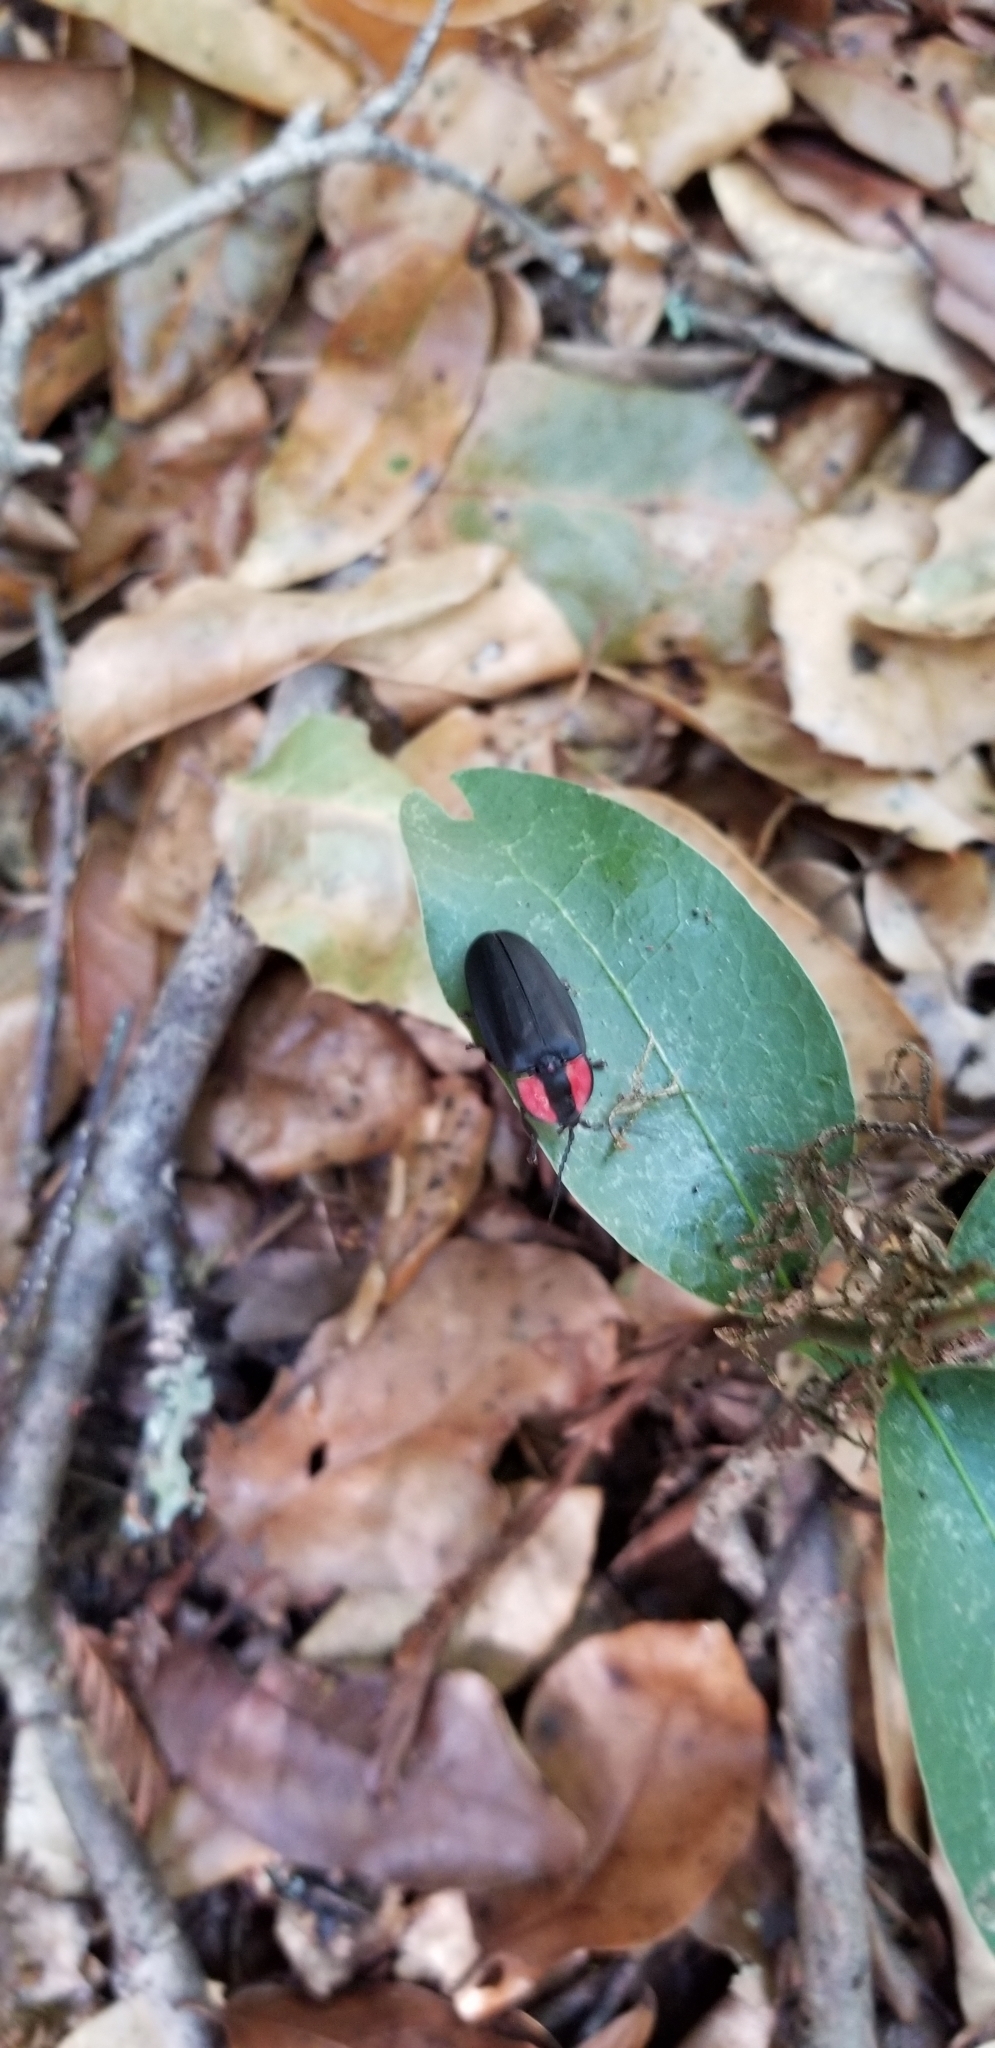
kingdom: Animalia
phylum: Arthropoda
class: Insecta
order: Coleoptera
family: Lampyridae
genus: Ellychnia
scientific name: Ellychnia megista
